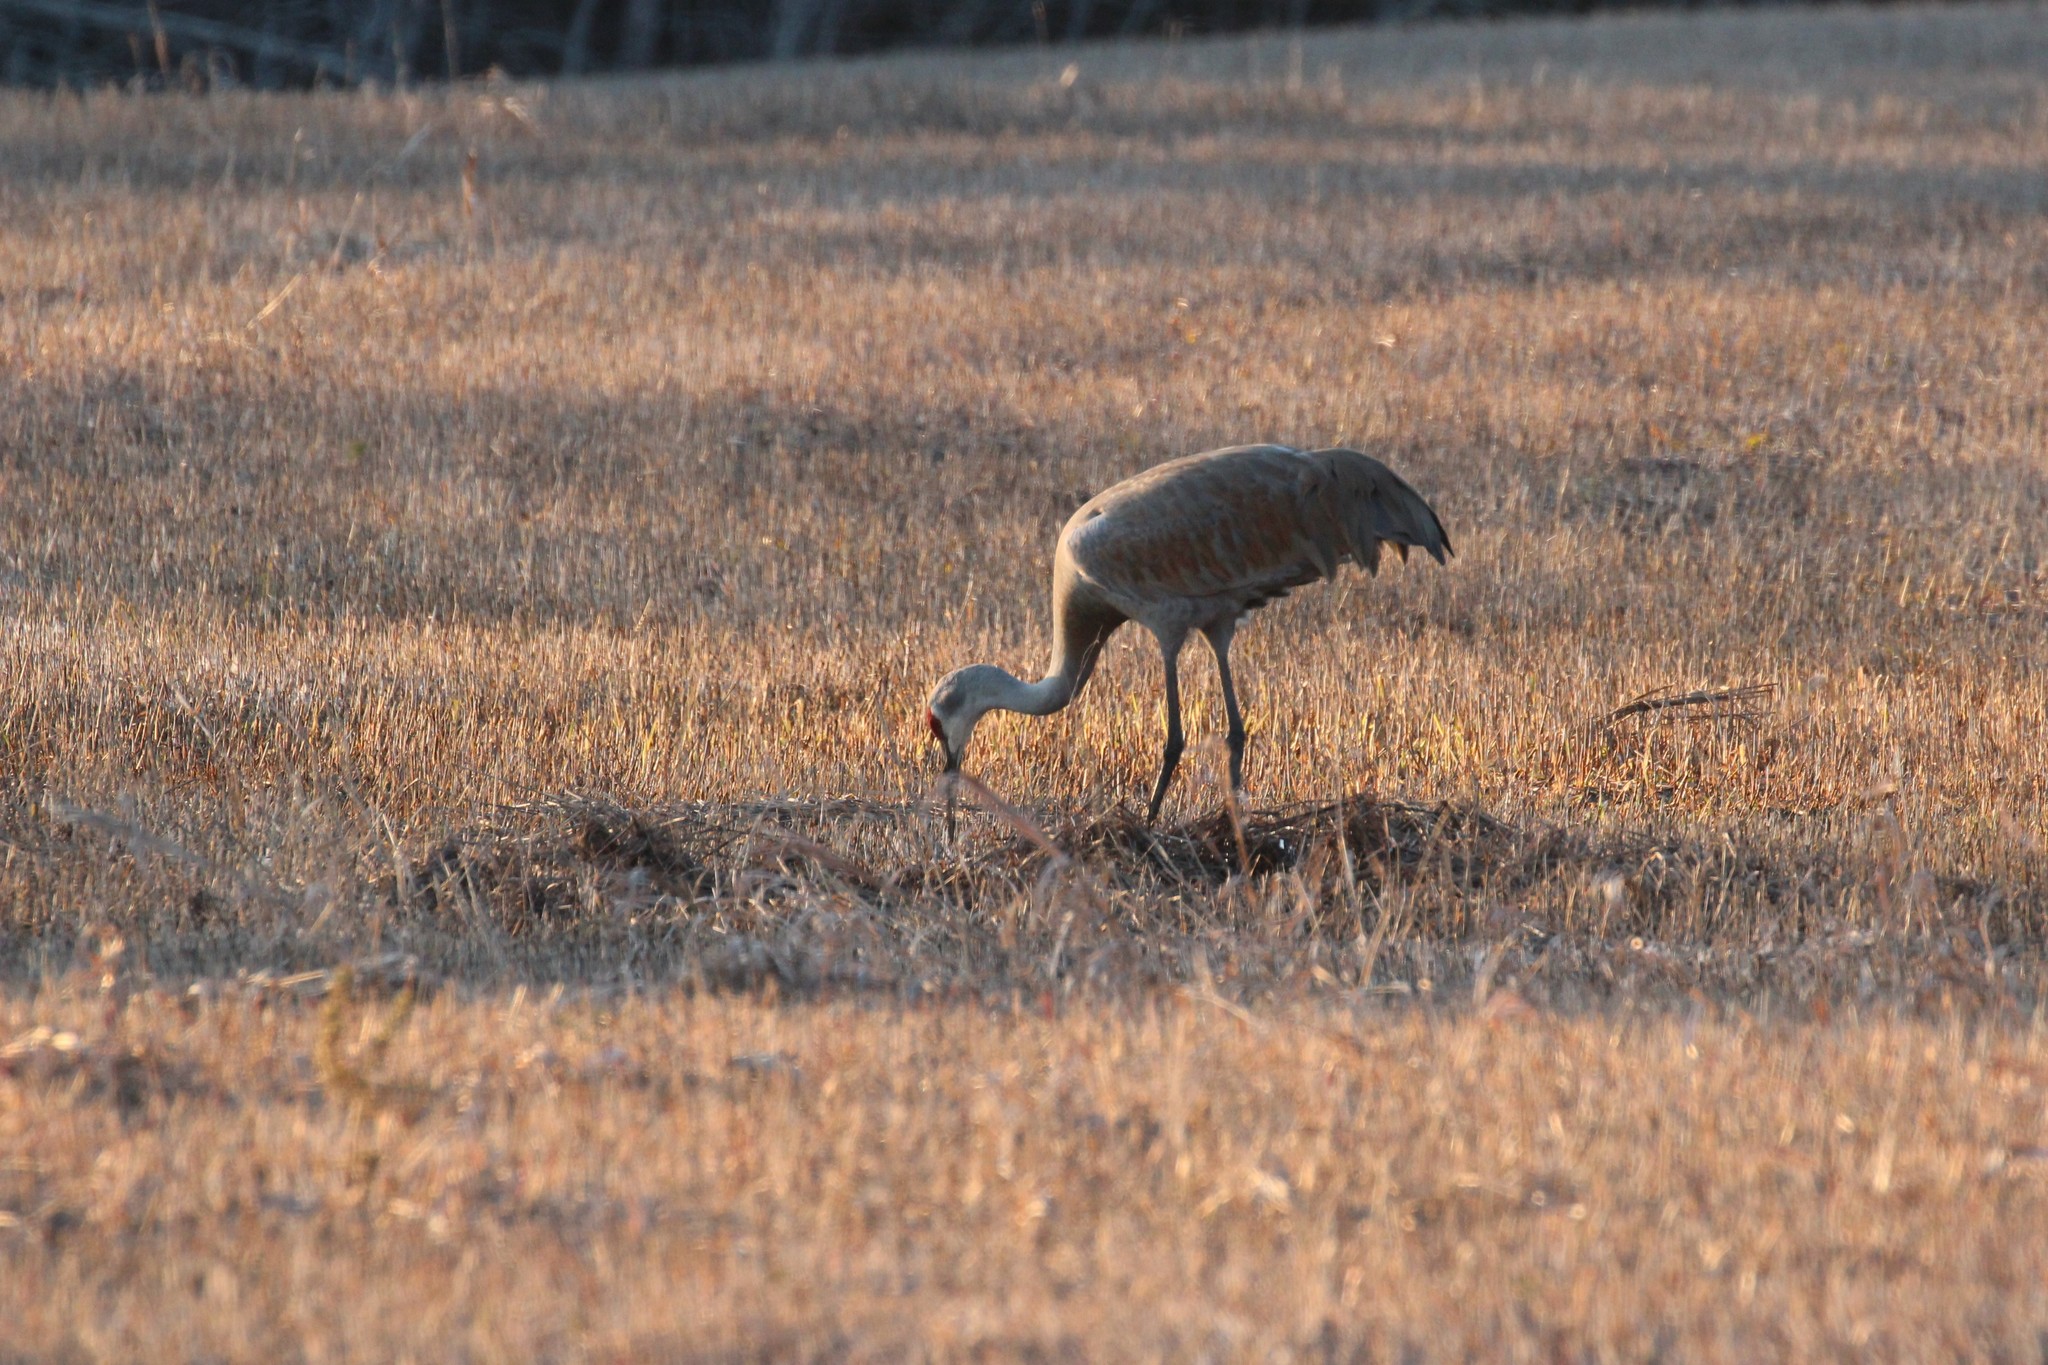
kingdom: Animalia
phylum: Chordata
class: Aves
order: Gruiformes
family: Gruidae
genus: Grus
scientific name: Grus canadensis
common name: Sandhill crane
